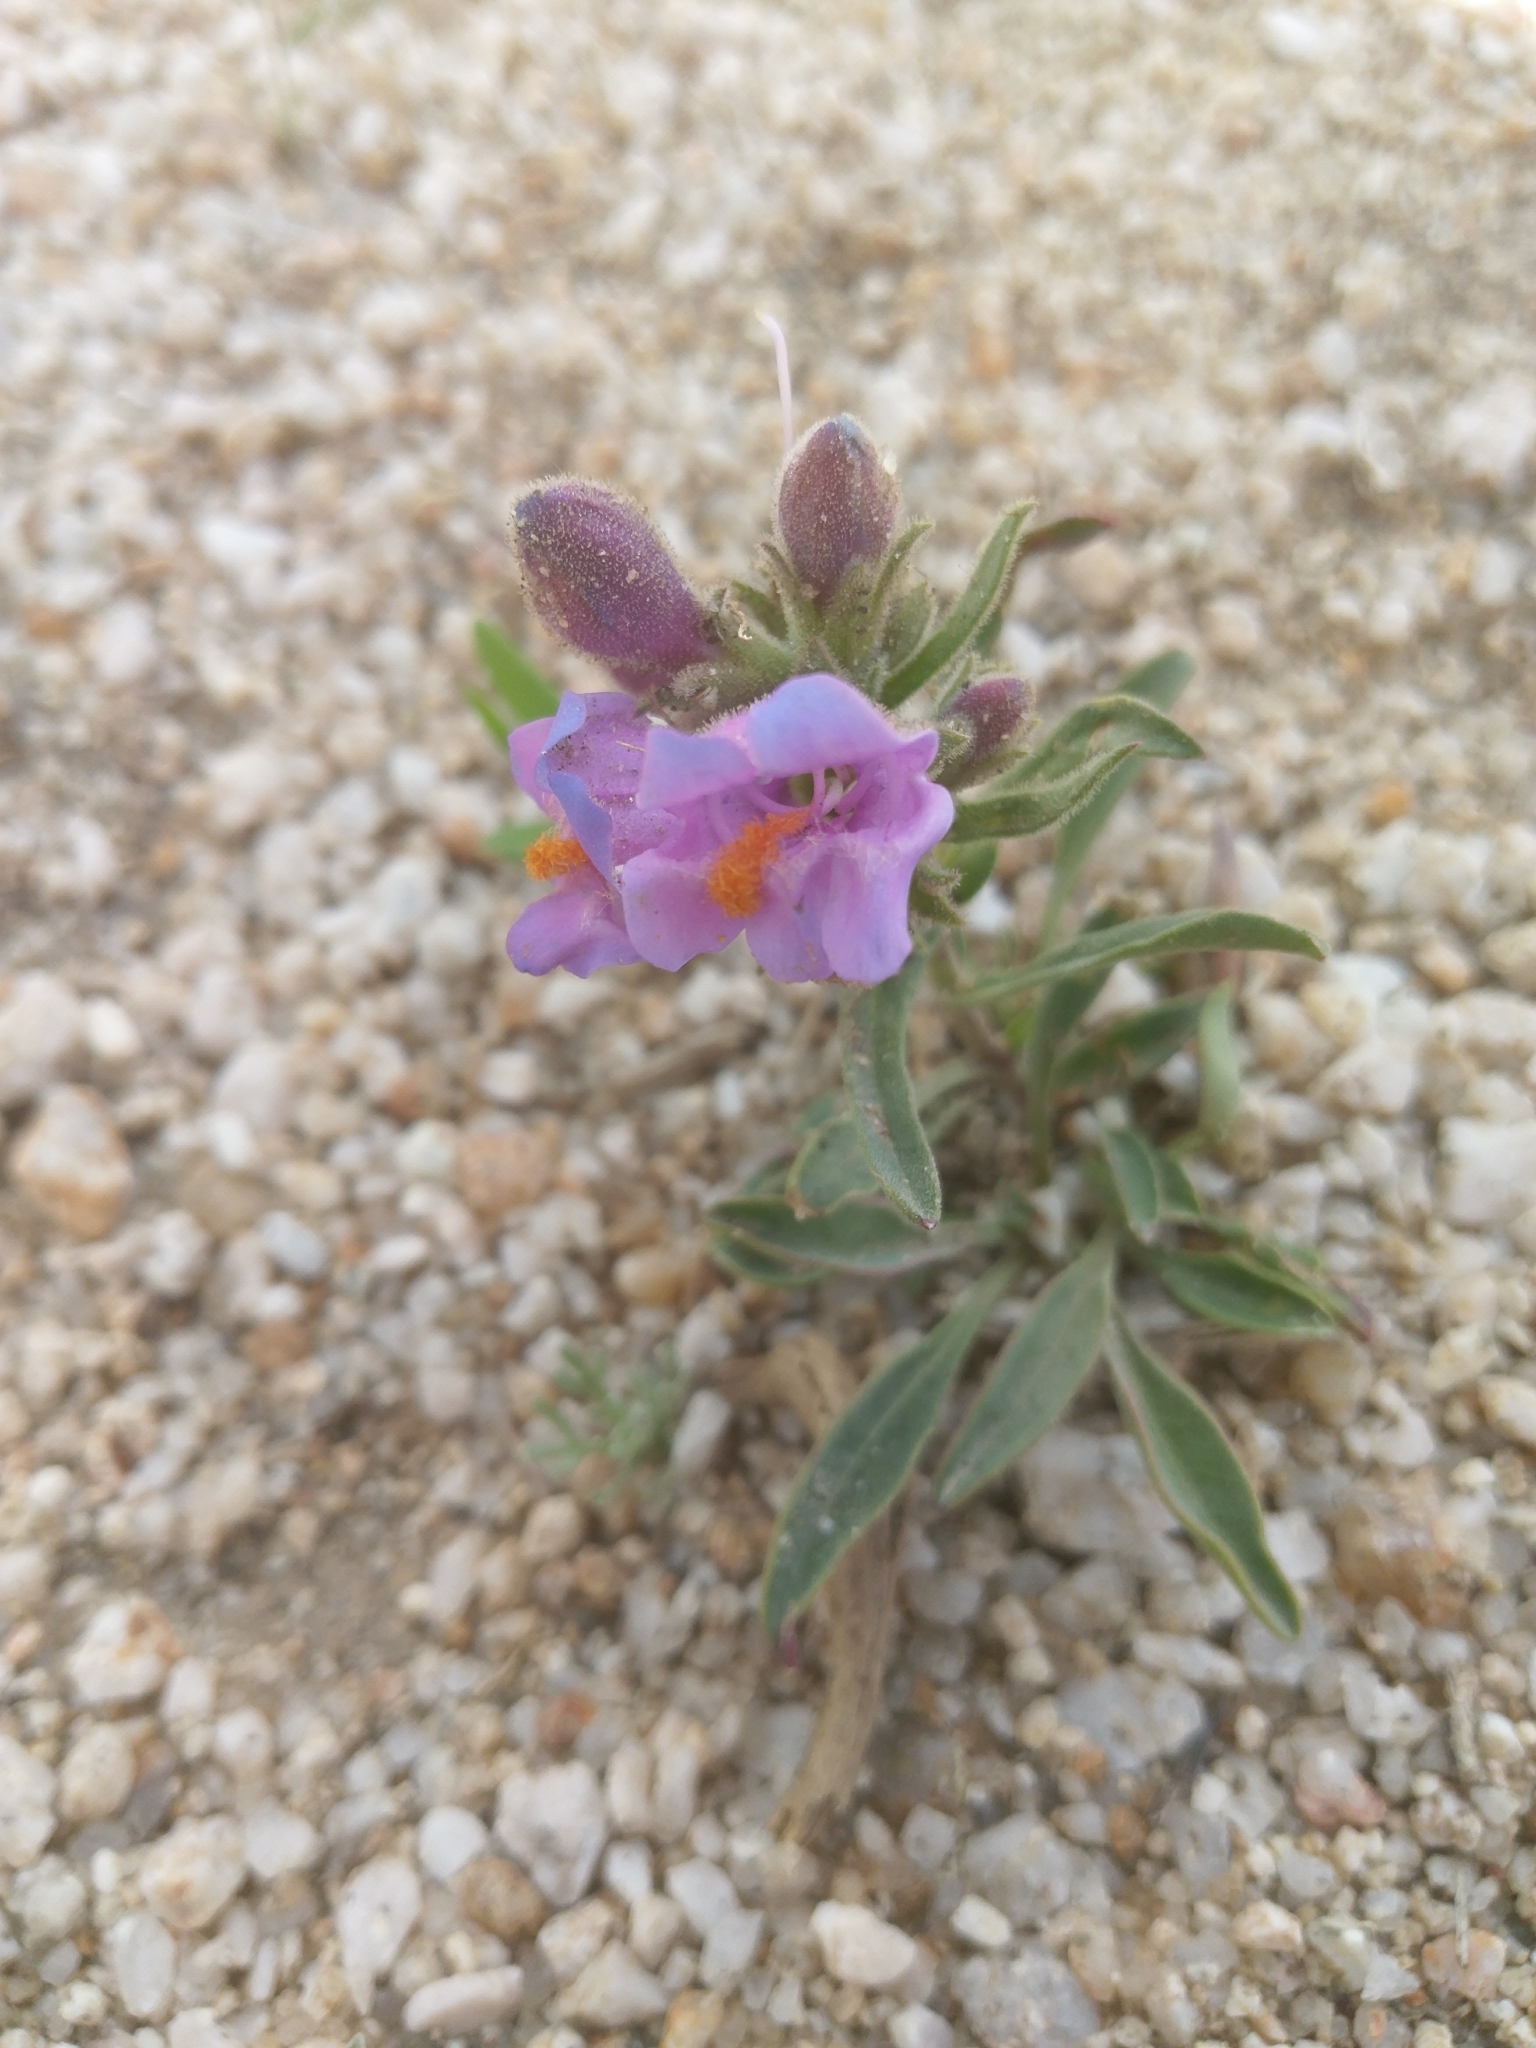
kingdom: Plantae
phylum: Tracheophyta
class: Magnoliopsida
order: Lamiales
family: Plantaginaceae
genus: Penstemon
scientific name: Penstemon janishiae
